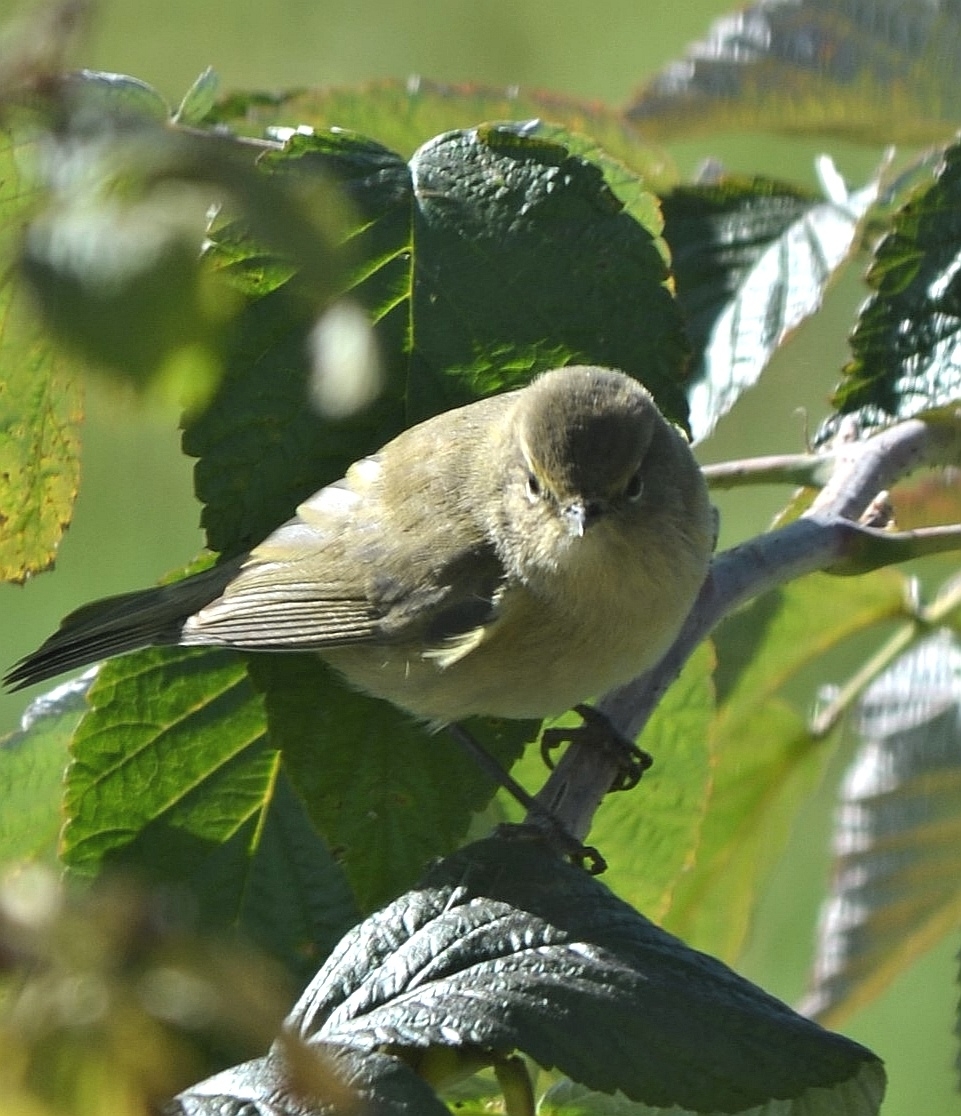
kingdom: Animalia
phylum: Chordata
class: Aves
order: Passeriformes
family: Phylloscopidae
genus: Phylloscopus
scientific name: Phylloscopus collybita
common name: Common chiffchaff
